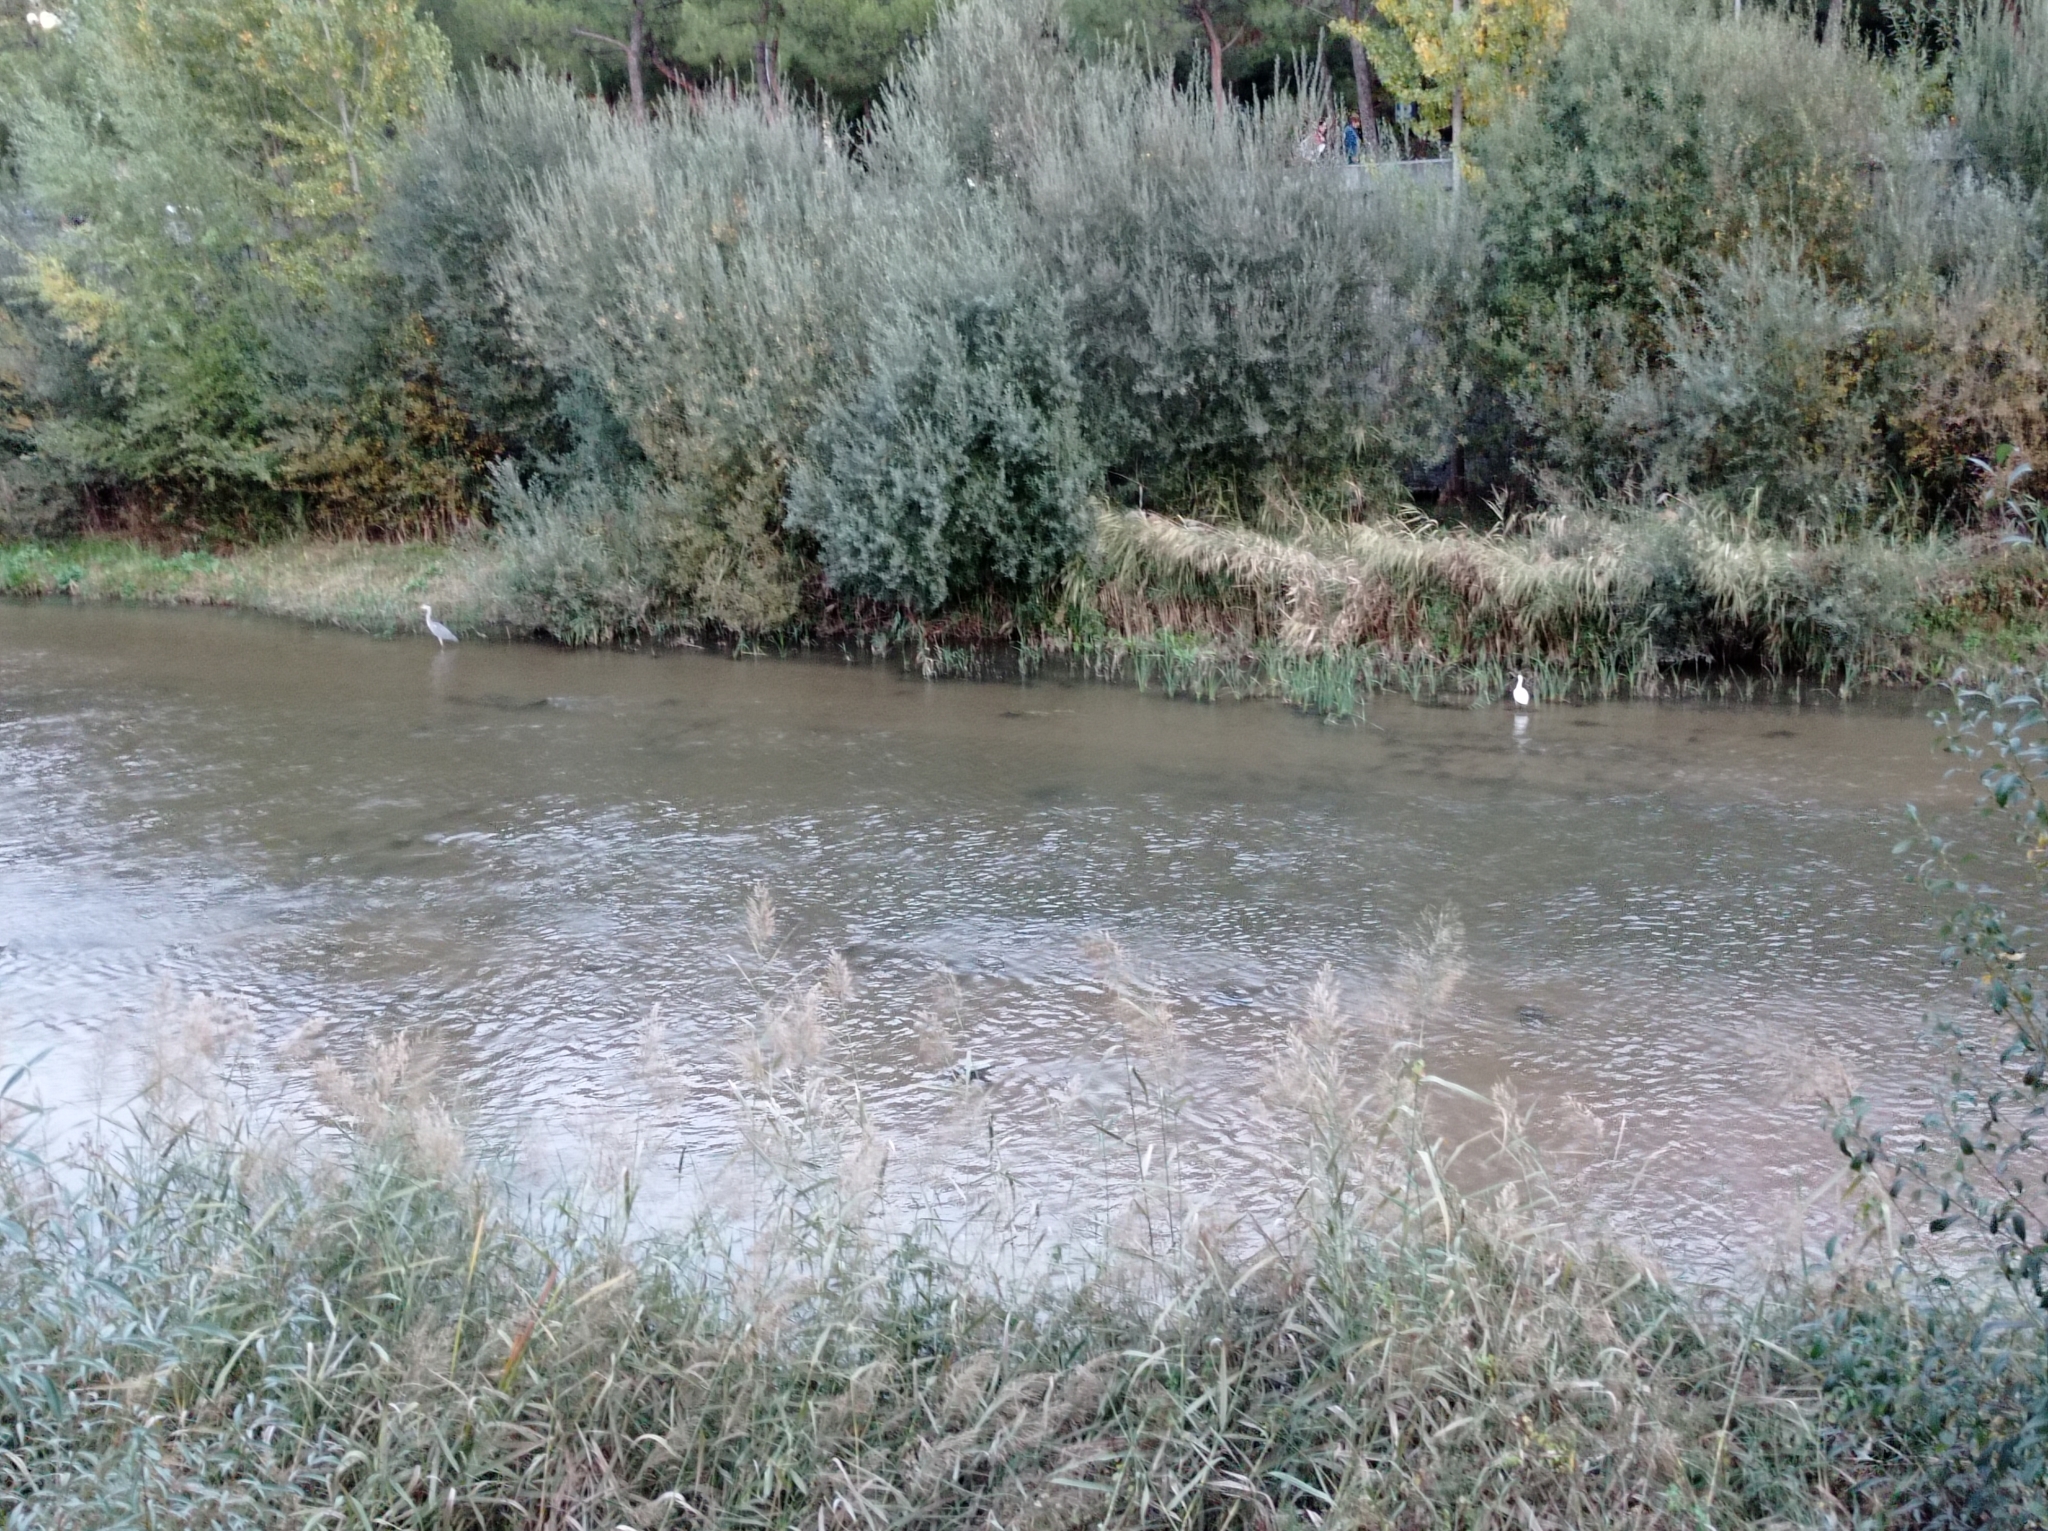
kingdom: Animalia
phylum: Chordata
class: Aves
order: Pelecaniformes
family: Ardeidae
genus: Egretta
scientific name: Egretta garzetta
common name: Little egret
